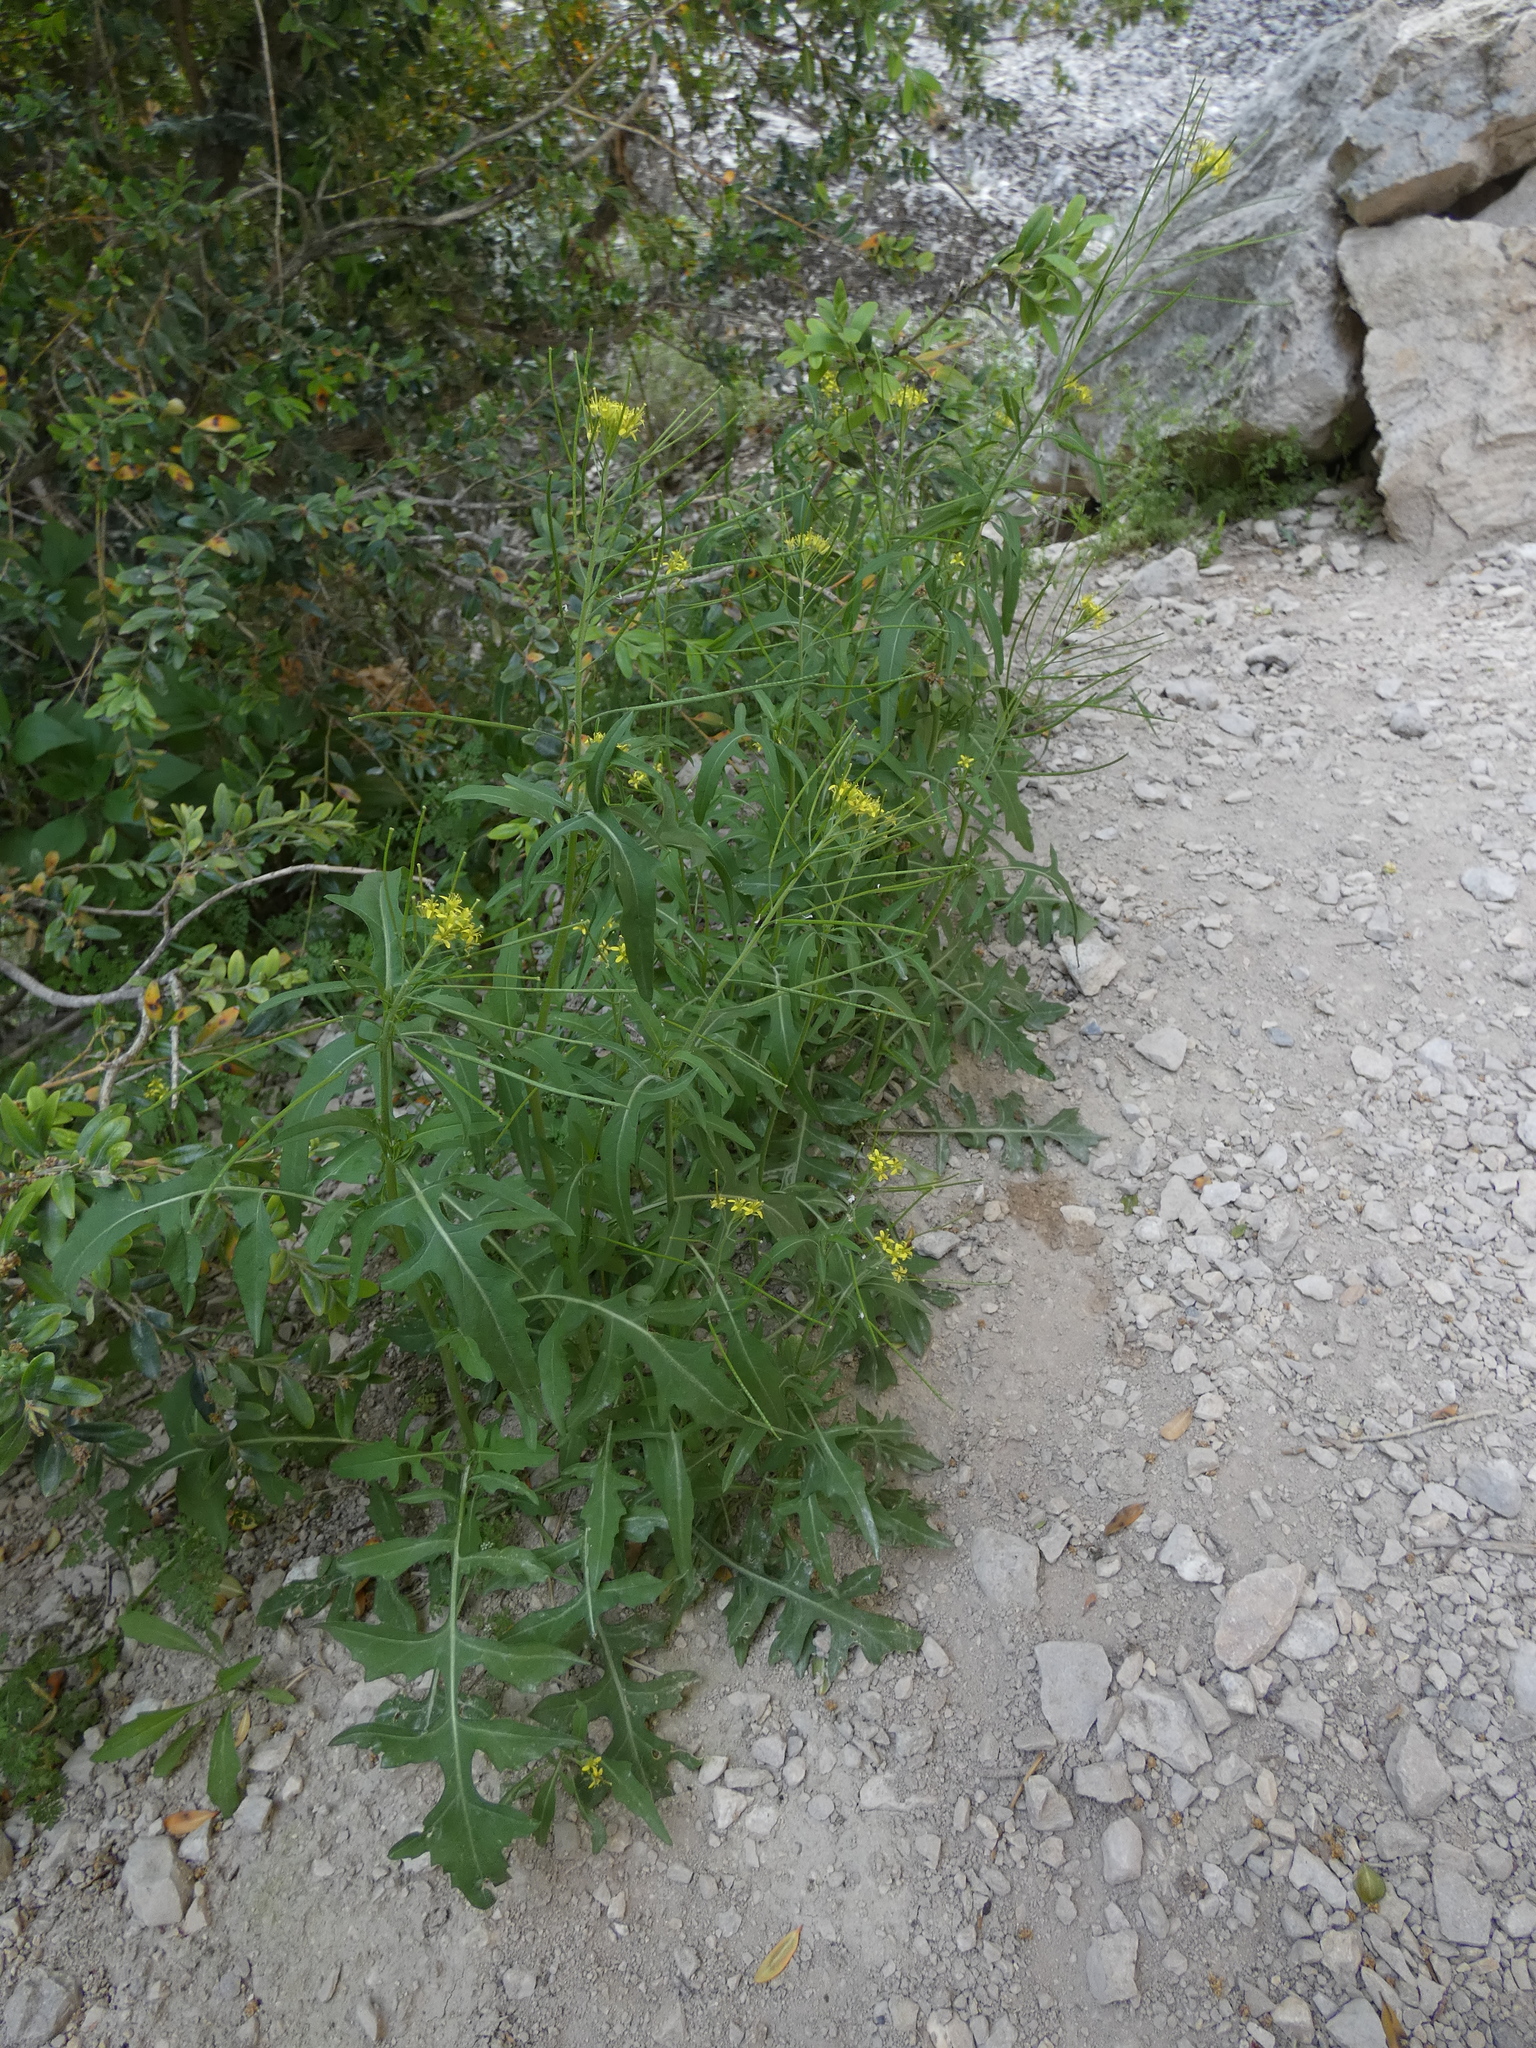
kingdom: Plantae
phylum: Tracheophyta
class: Magnoliopsida
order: Brassicales
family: Brassicaceae
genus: Sisymbrium
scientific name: Sisymbrium irio
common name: London rocket
